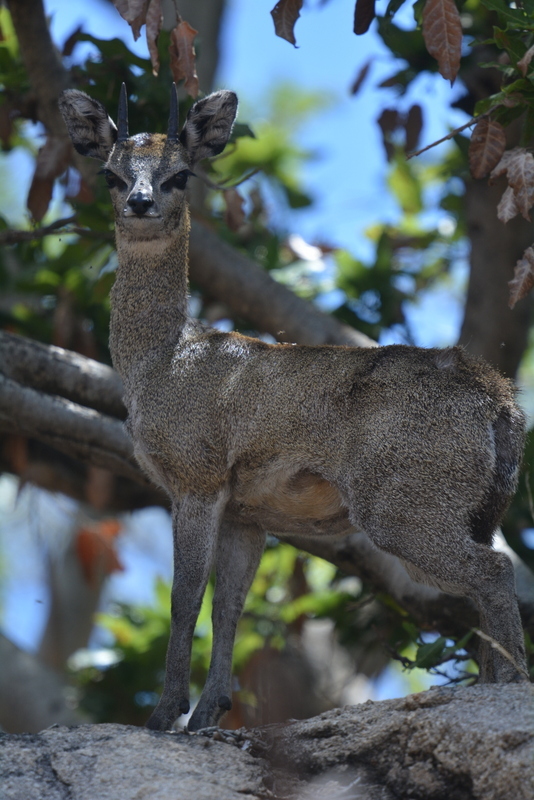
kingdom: Animalia
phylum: Chordata
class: Mammalia
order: Artiodactyla
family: Bovidae
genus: Oreotragus
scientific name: Oreotragus oreotragus
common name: Klipspringer
